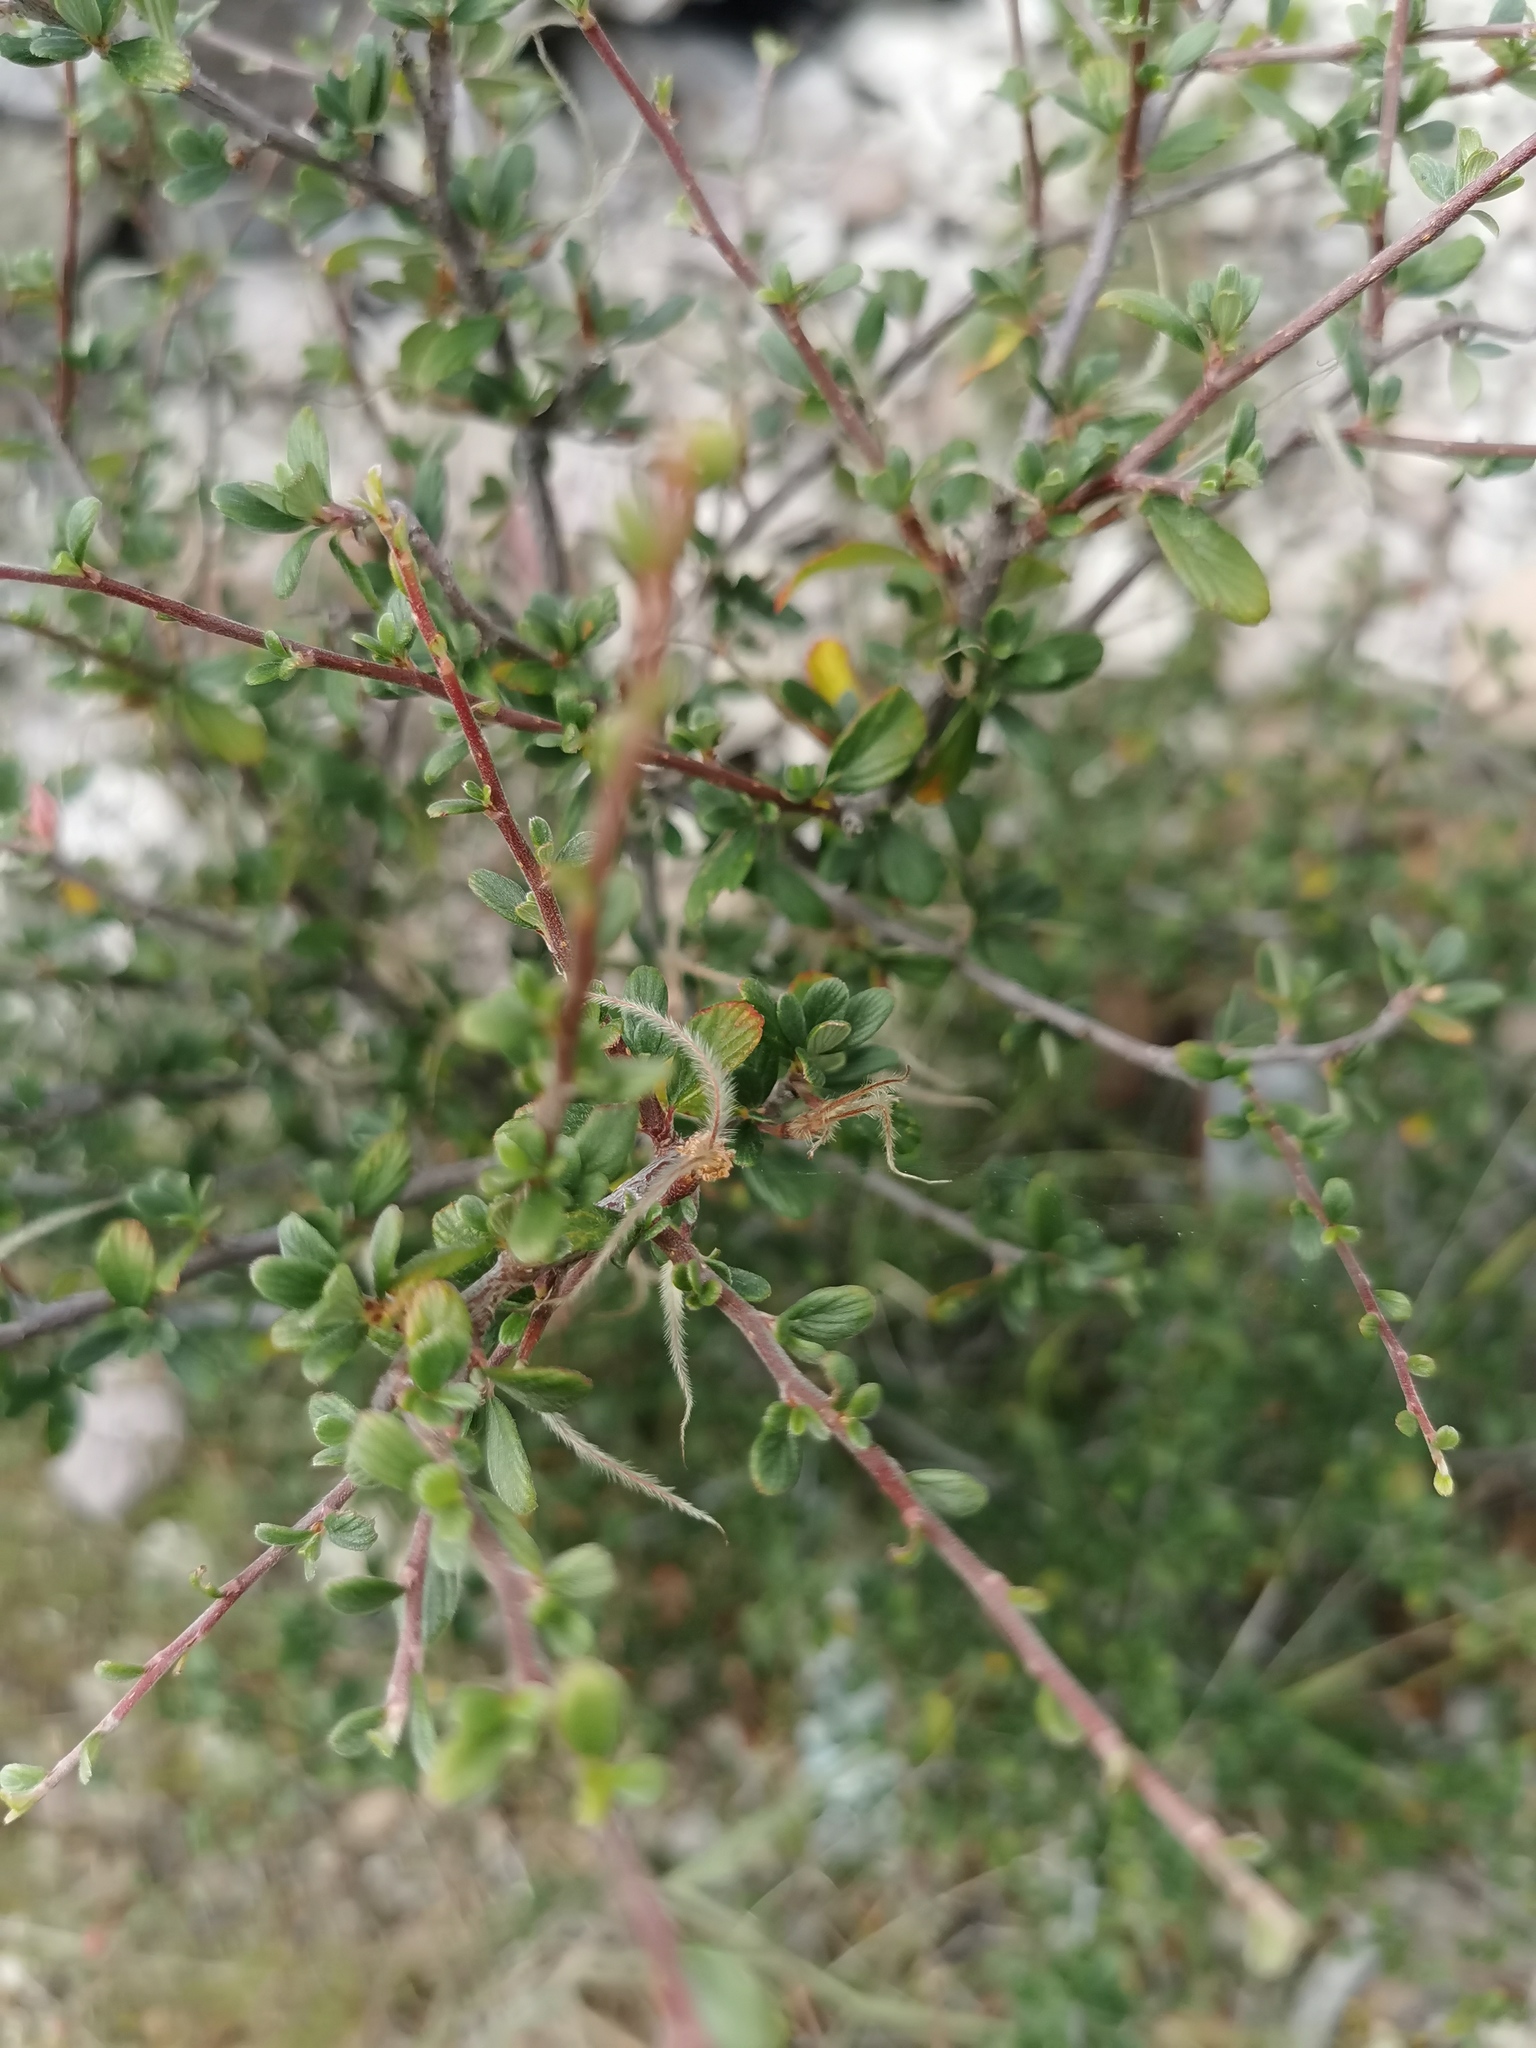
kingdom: Plantae
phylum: Tracheophyta
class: Magnoliopsida
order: Rosales
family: Rosaceae
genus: Cercocarpus
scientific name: Cercocarpus montanus
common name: Alder-leaf cercocarpus
